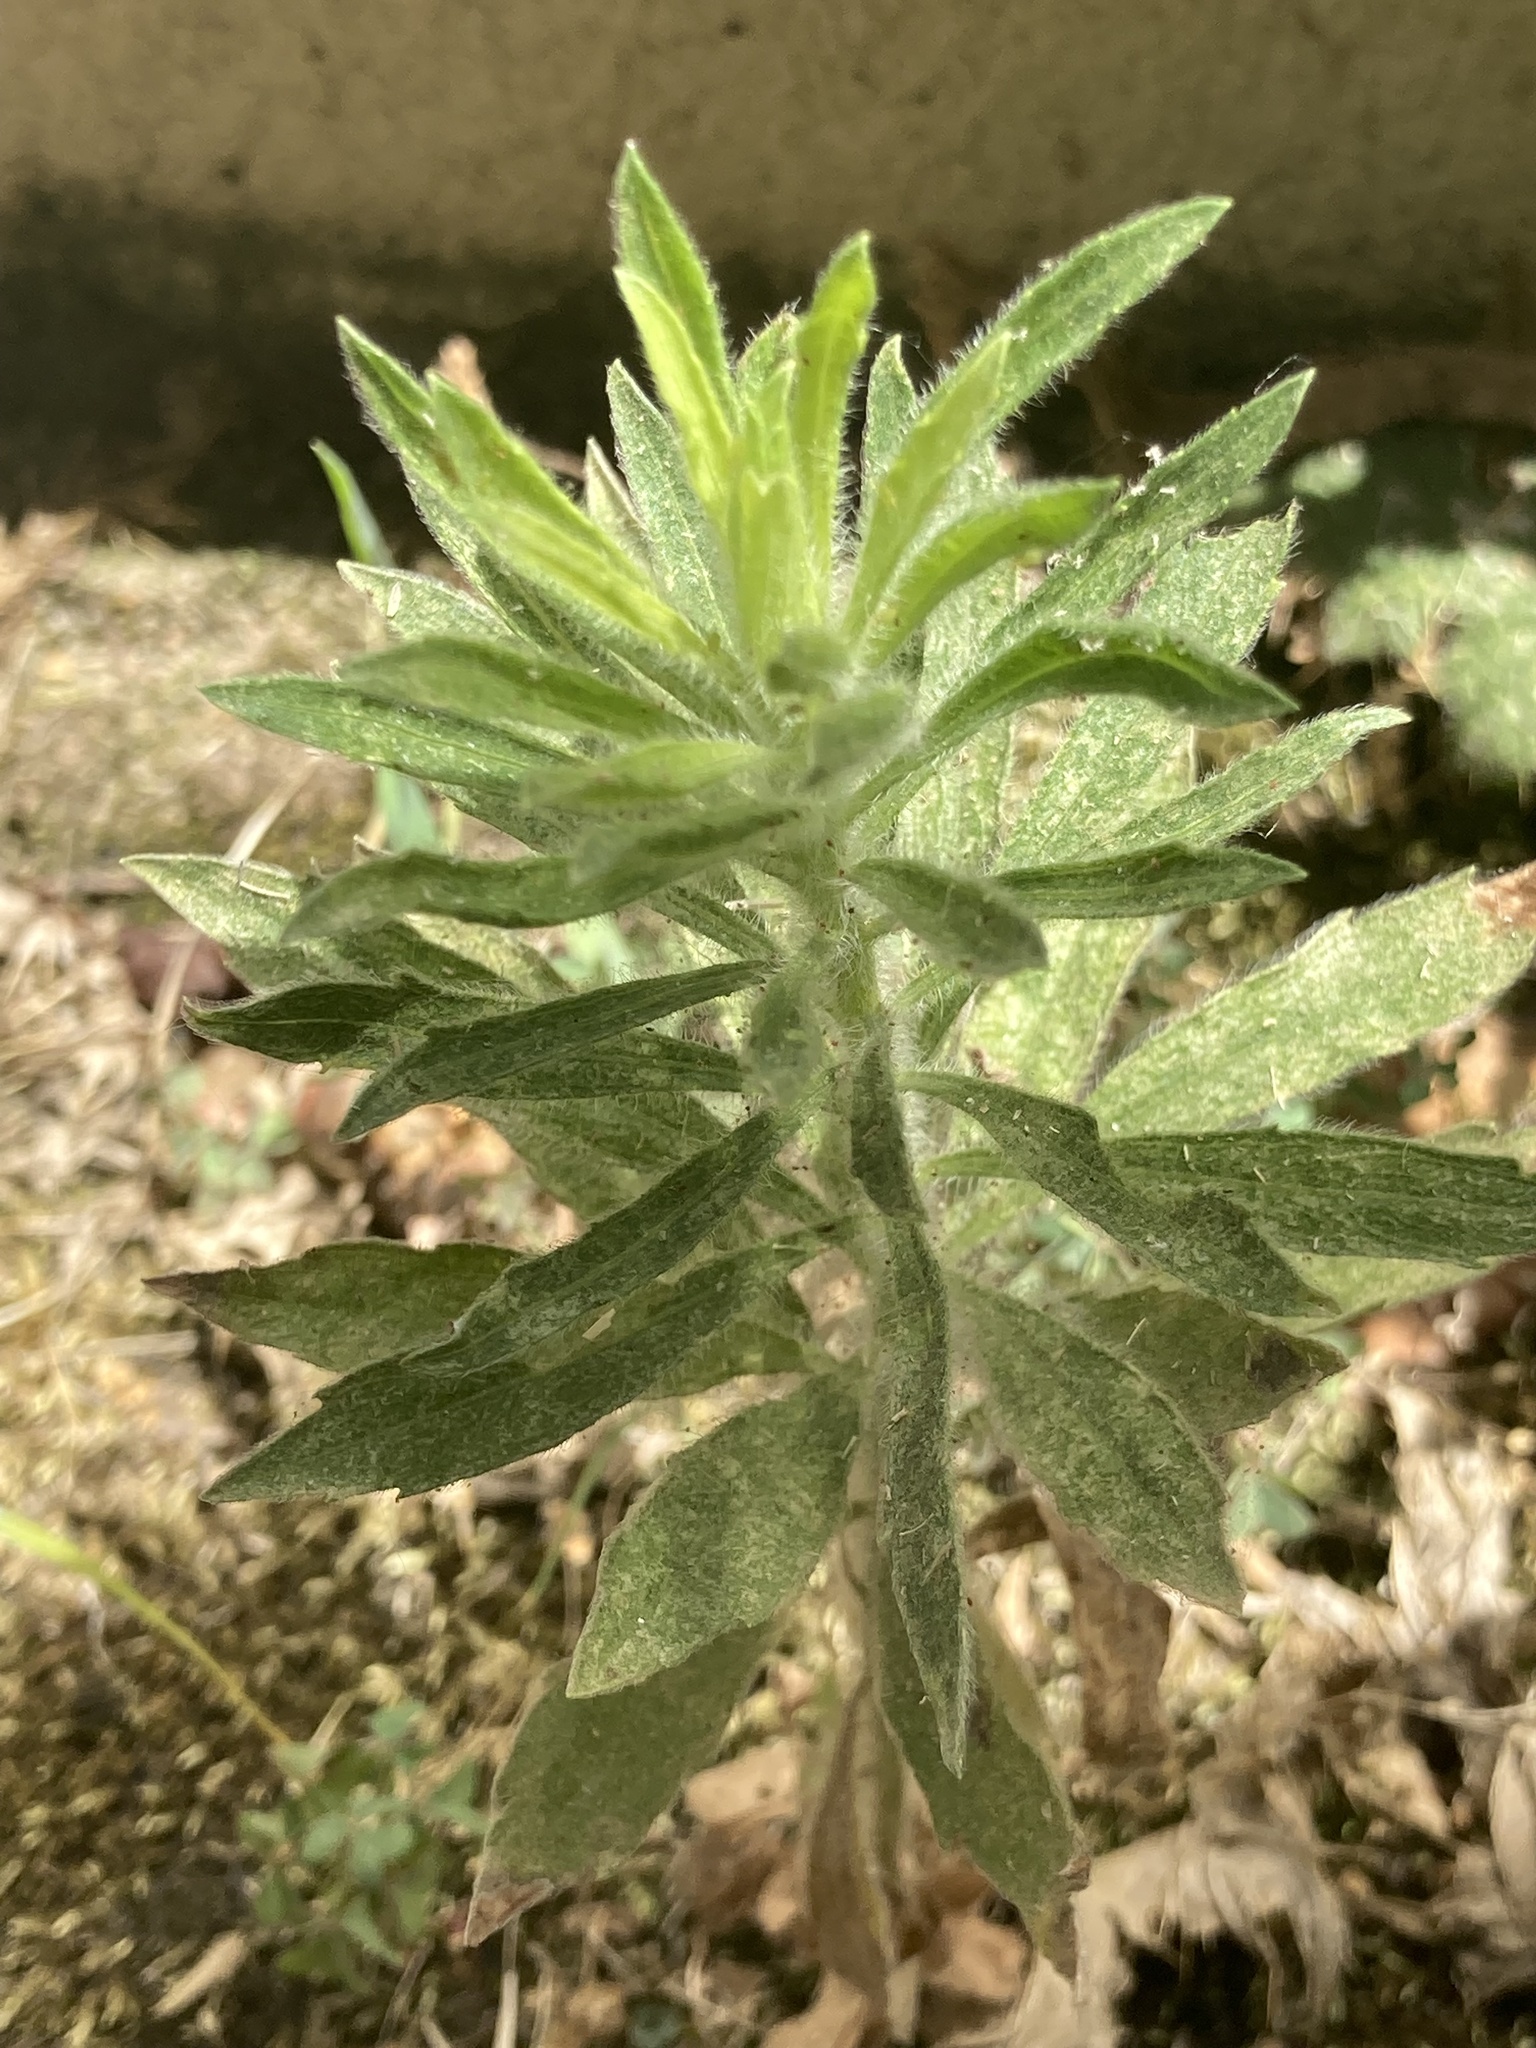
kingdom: Plantae
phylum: Tracheophyta
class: Magnoliopsida
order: Asterales
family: Asteraceae
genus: Erigeron
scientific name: Erigeron canadensis
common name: Canadian fleabane
